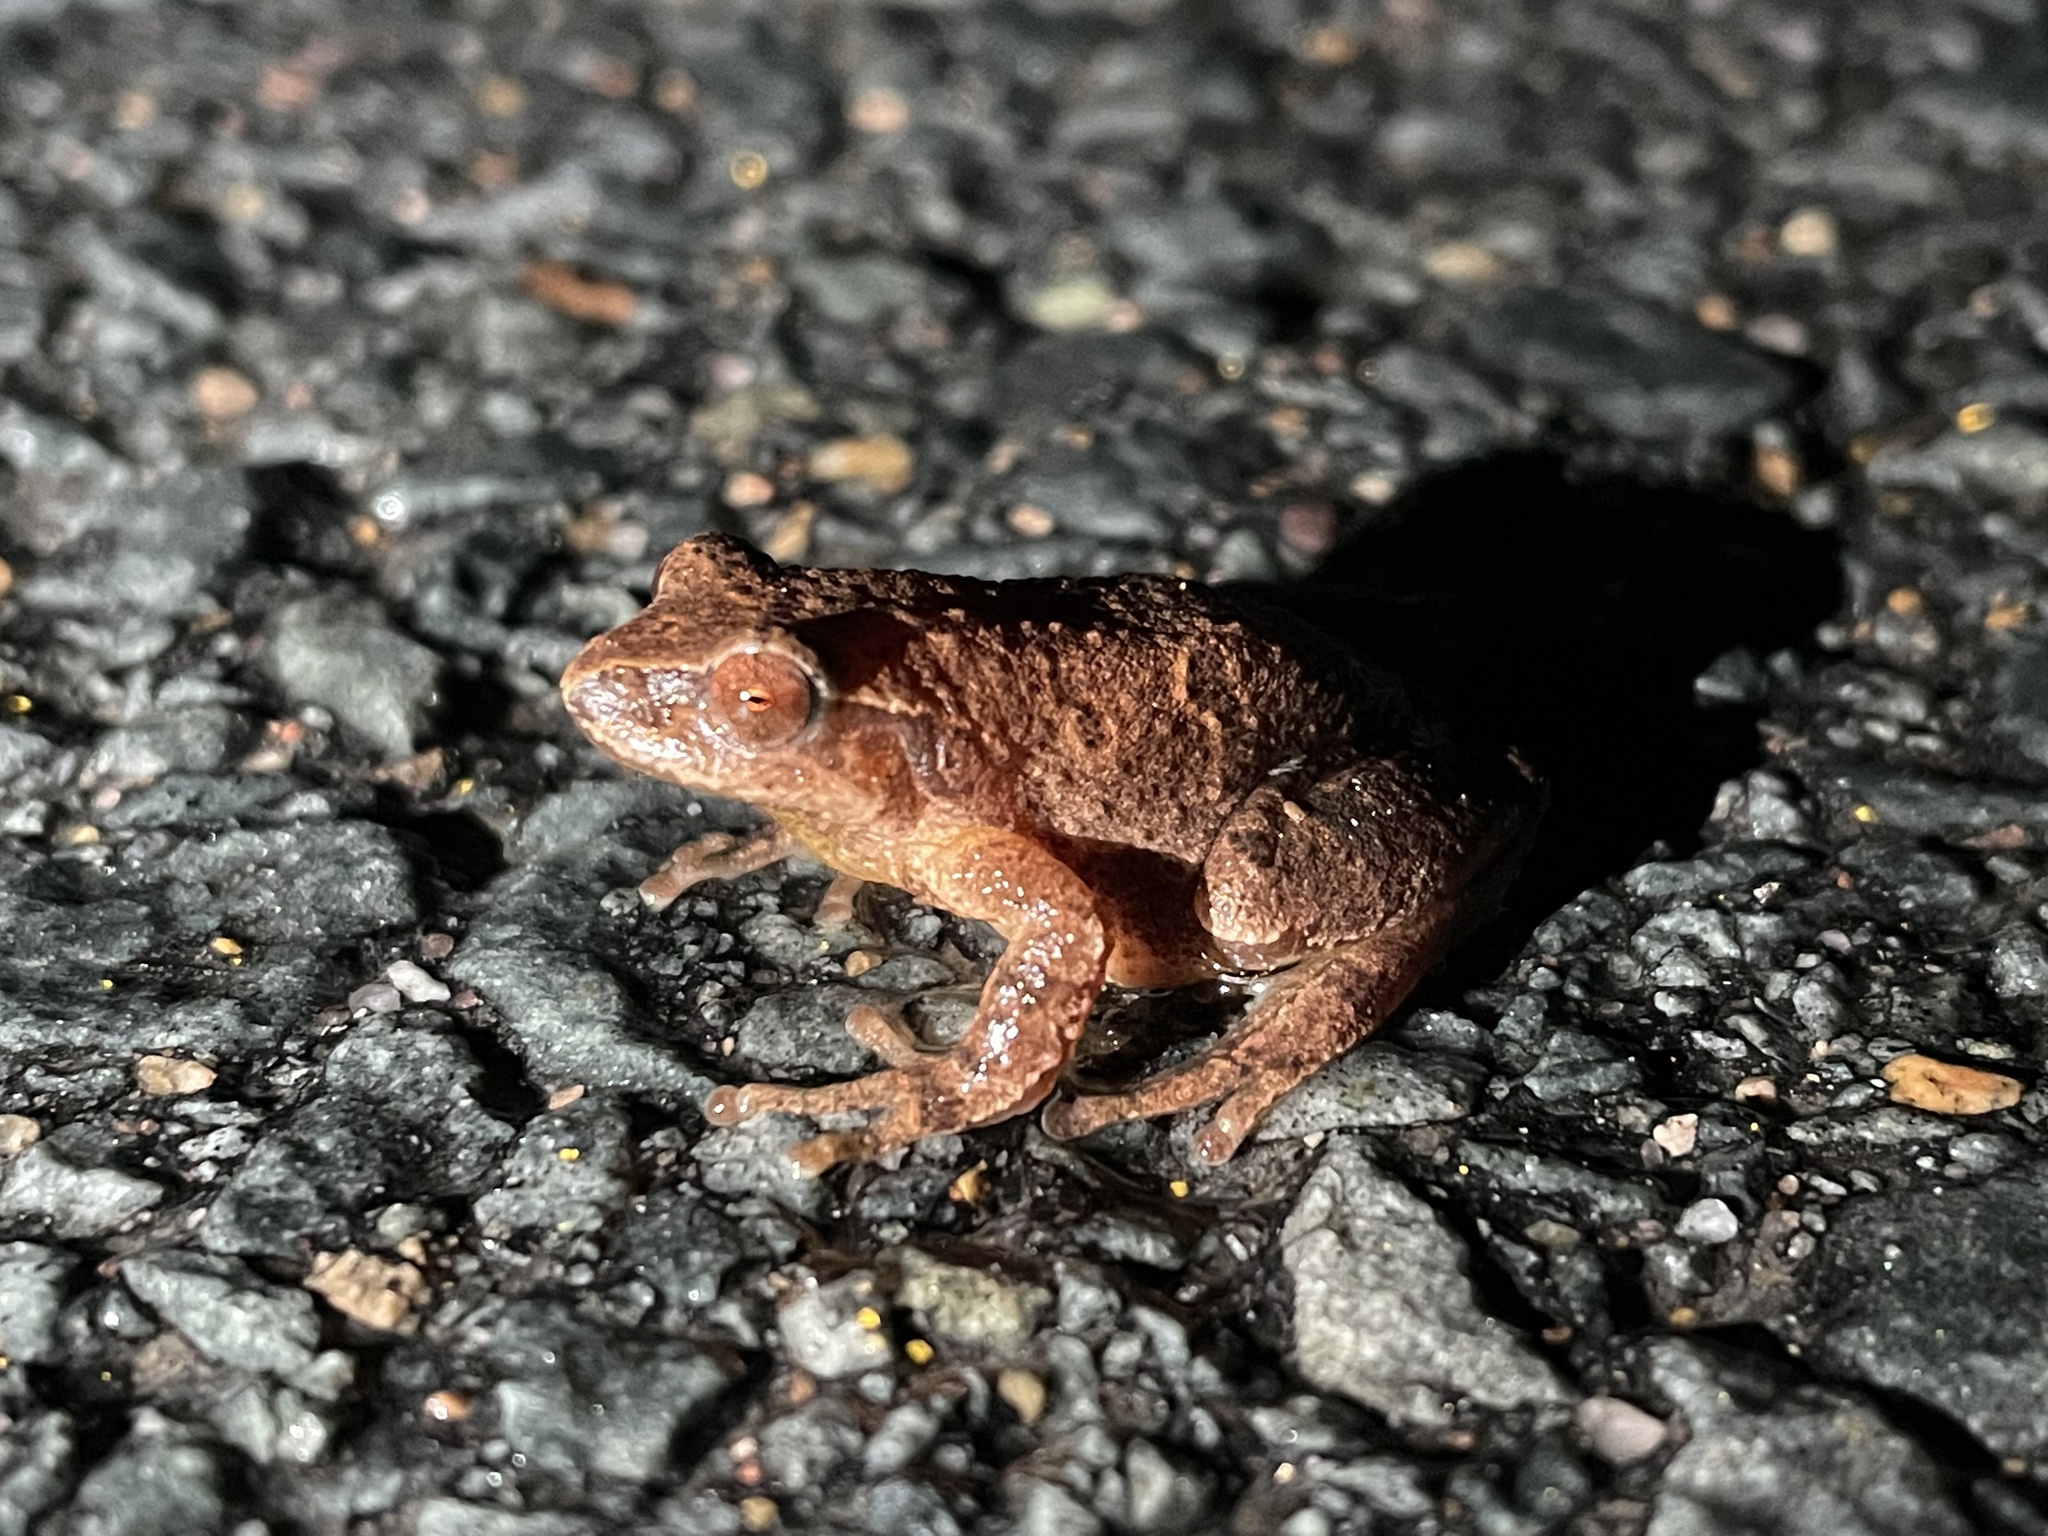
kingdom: Animalia
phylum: Chordata
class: Amphibia
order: Anura
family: Hylidae
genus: Pseudacris
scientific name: Pseudacris crucifer
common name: Spring peeper
